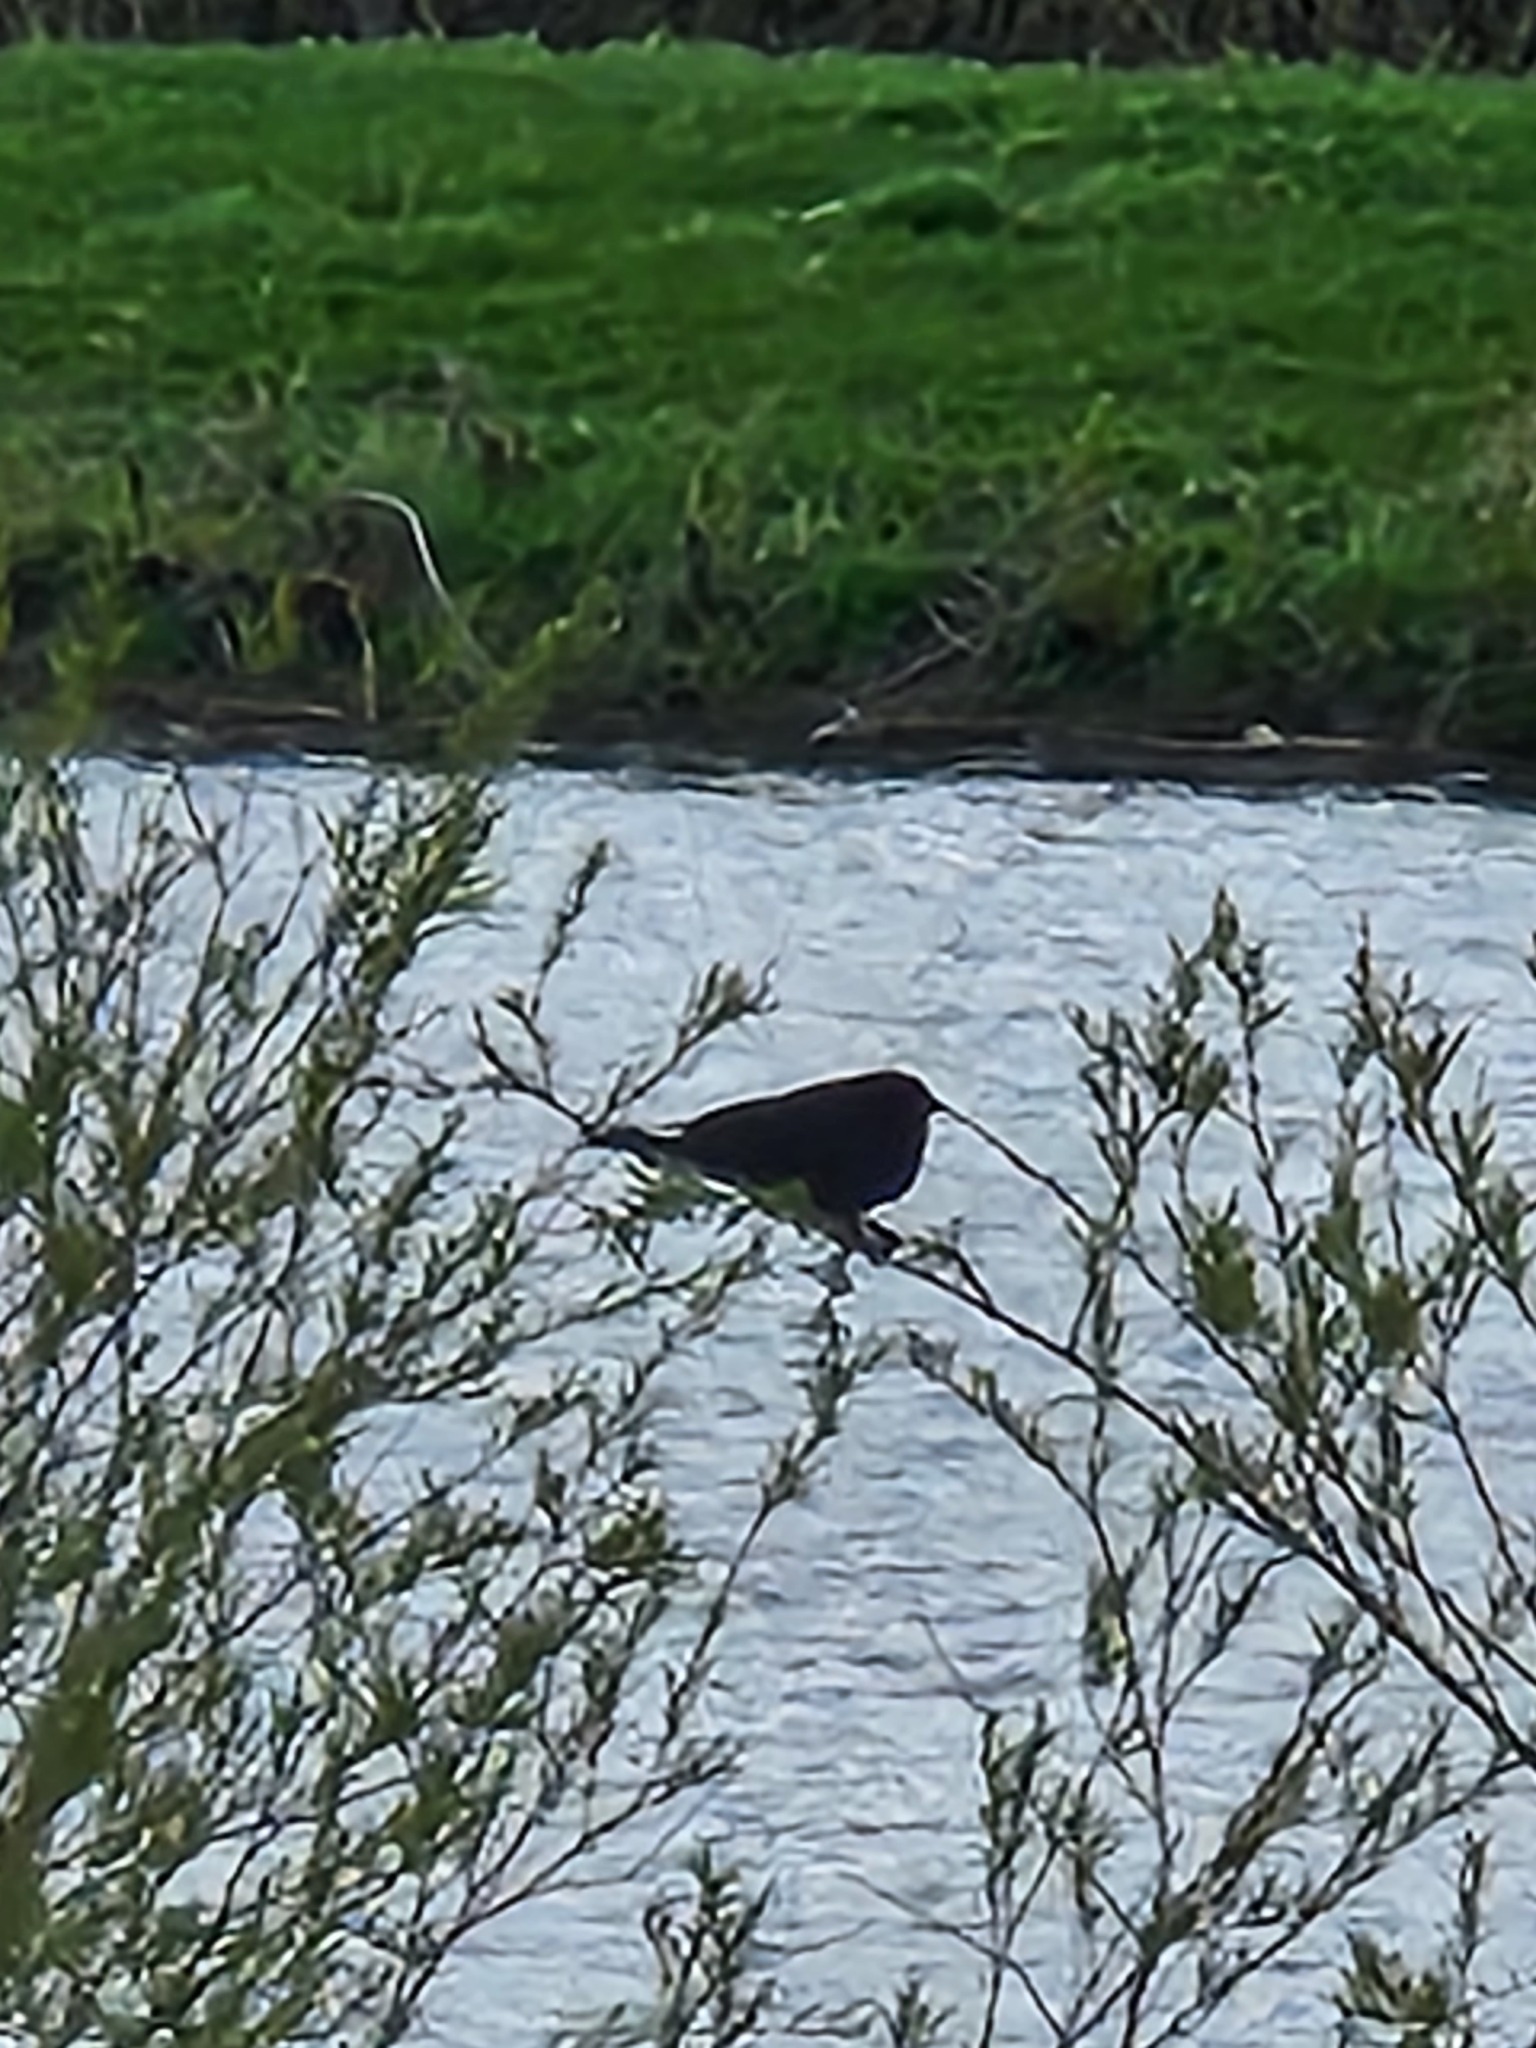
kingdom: Animalia
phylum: Chordata
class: Aves
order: Passeriformes
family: Icteridae
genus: Agelaius
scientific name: Agelaius phoeniceus
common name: Red-winged blackbird
